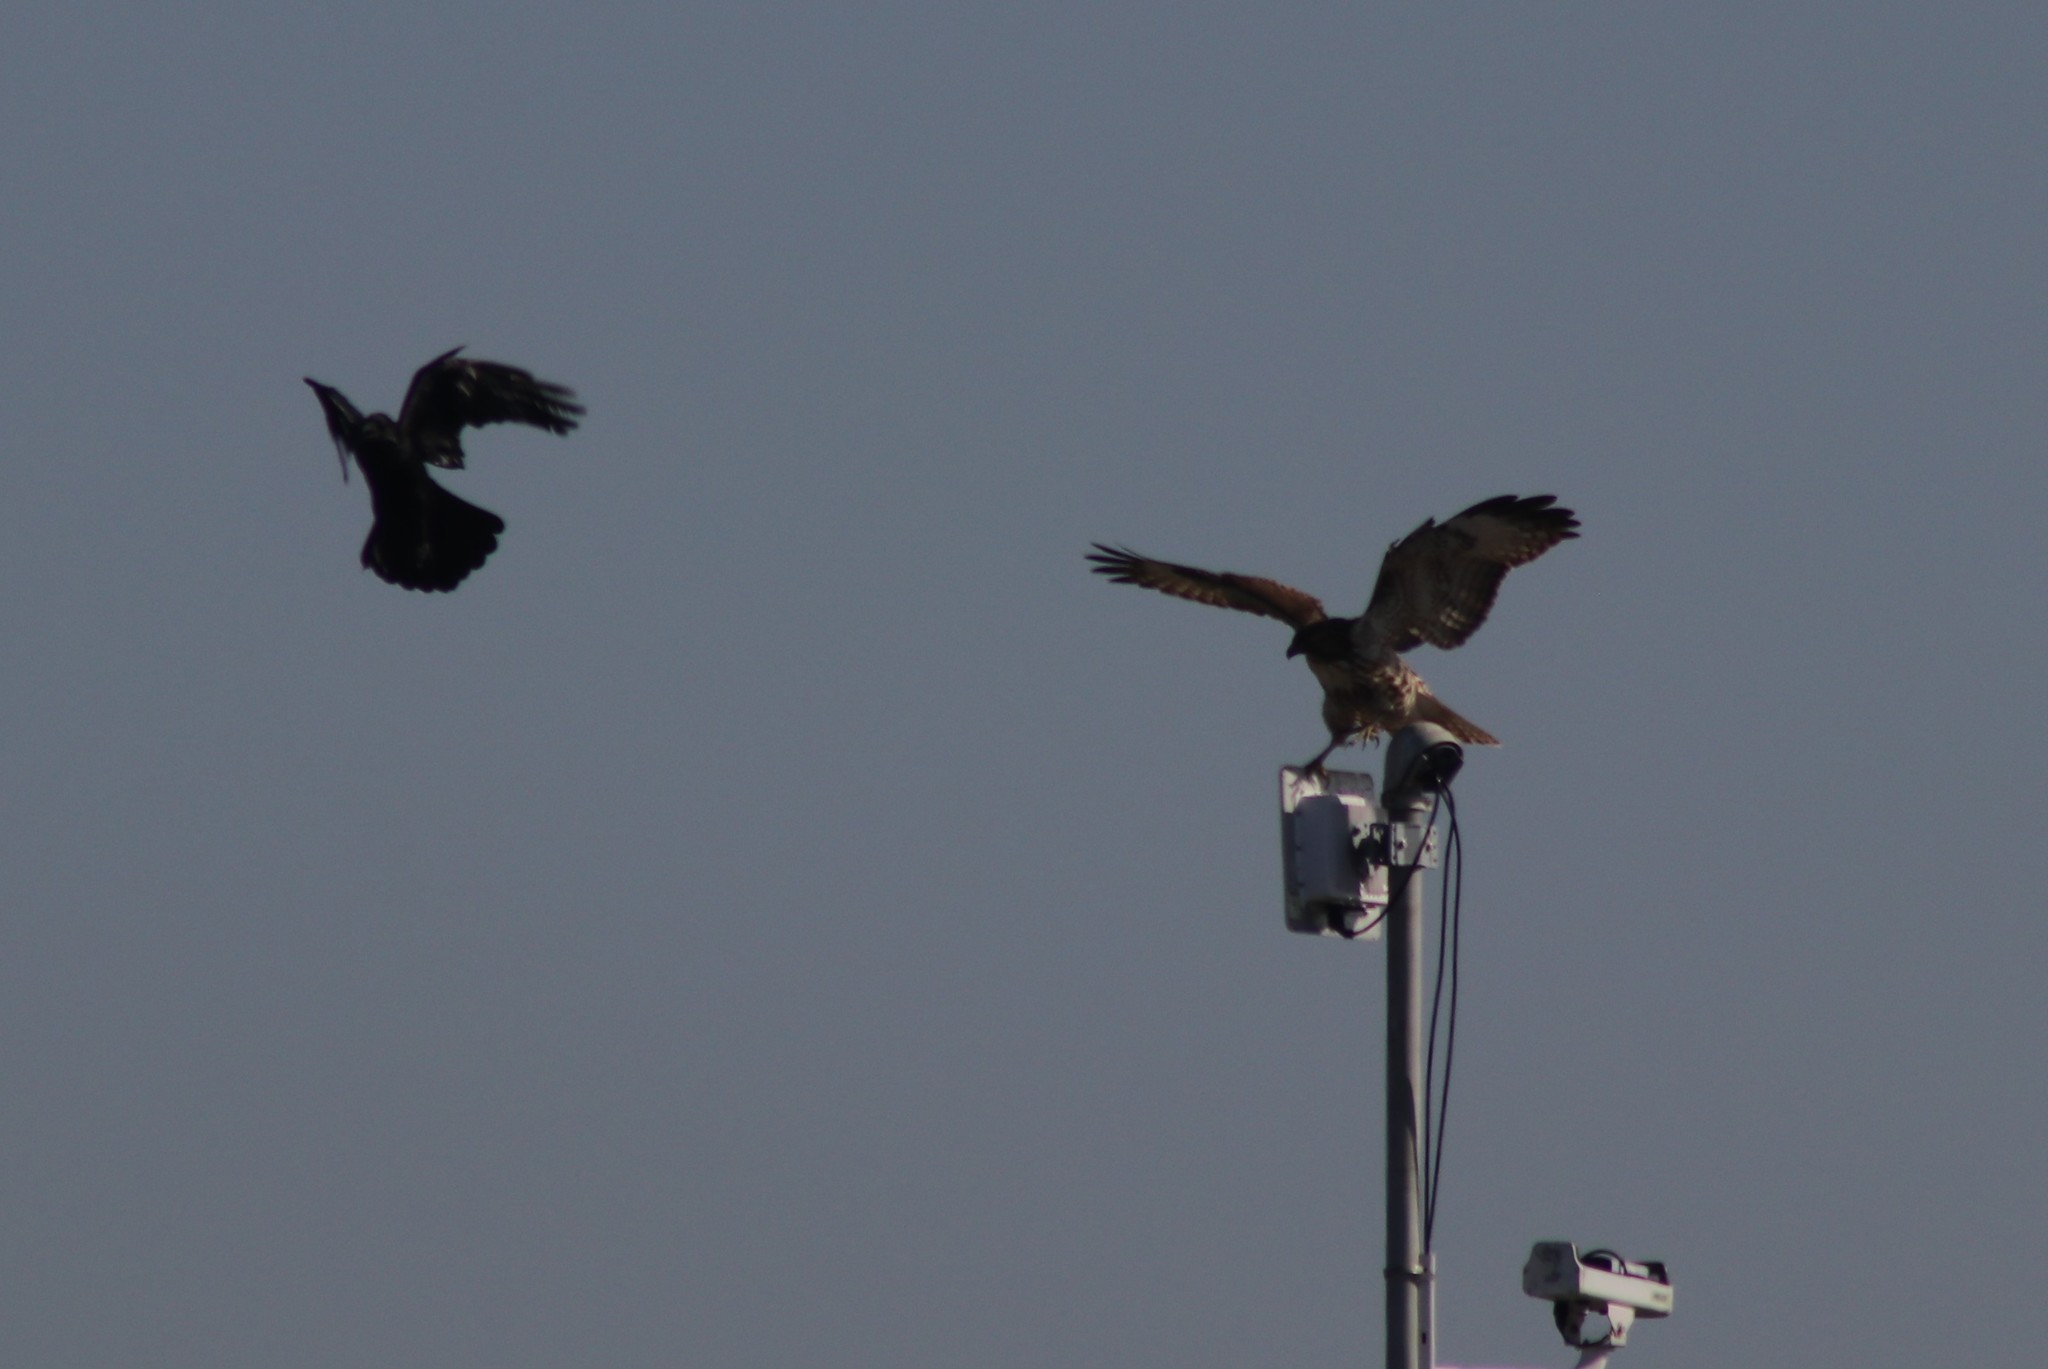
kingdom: Animalia
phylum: Chordata
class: Aves
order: Passeriformes
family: Corvidae
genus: Corvus
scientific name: Corvus corax
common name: Common raven
